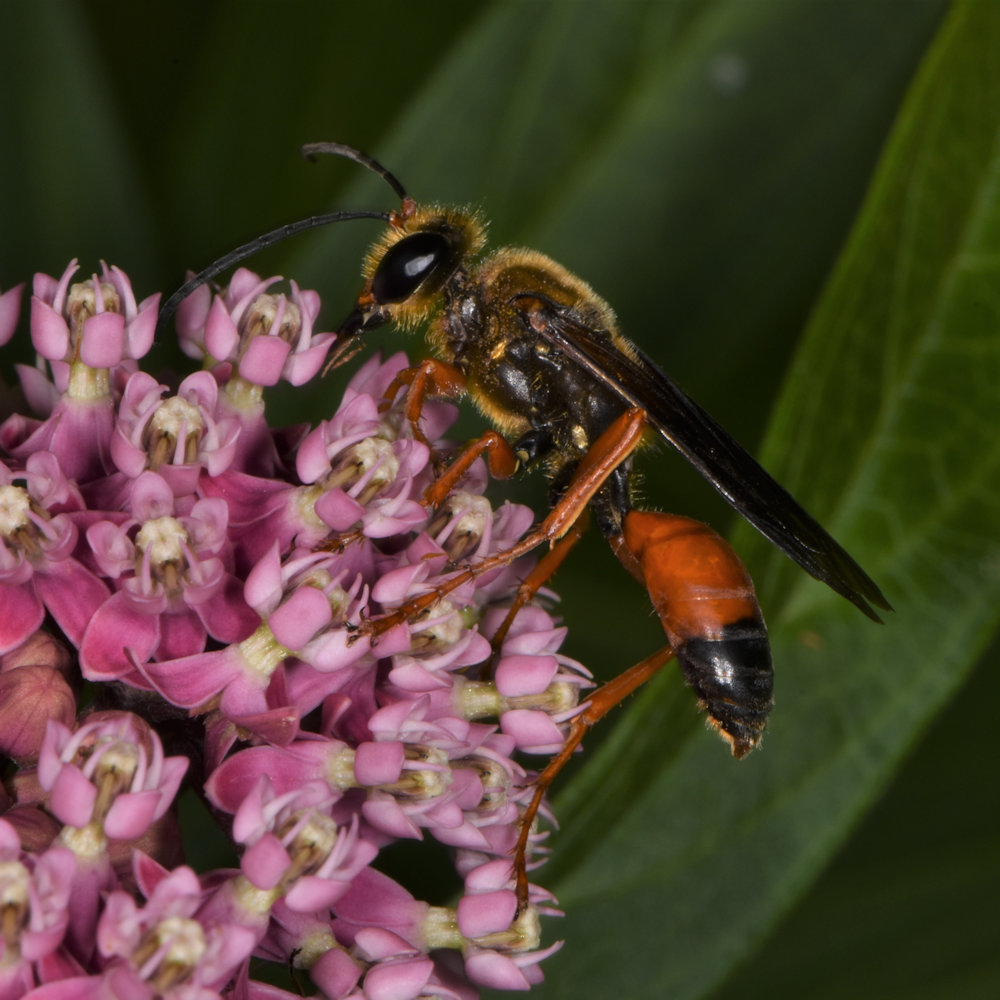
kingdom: Animalia
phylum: Arthropoda
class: Insecta
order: Hymenoptera
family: Sphecidae
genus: Sphex
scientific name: Sphex ichneumoneus
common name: Great golden digger wasp
